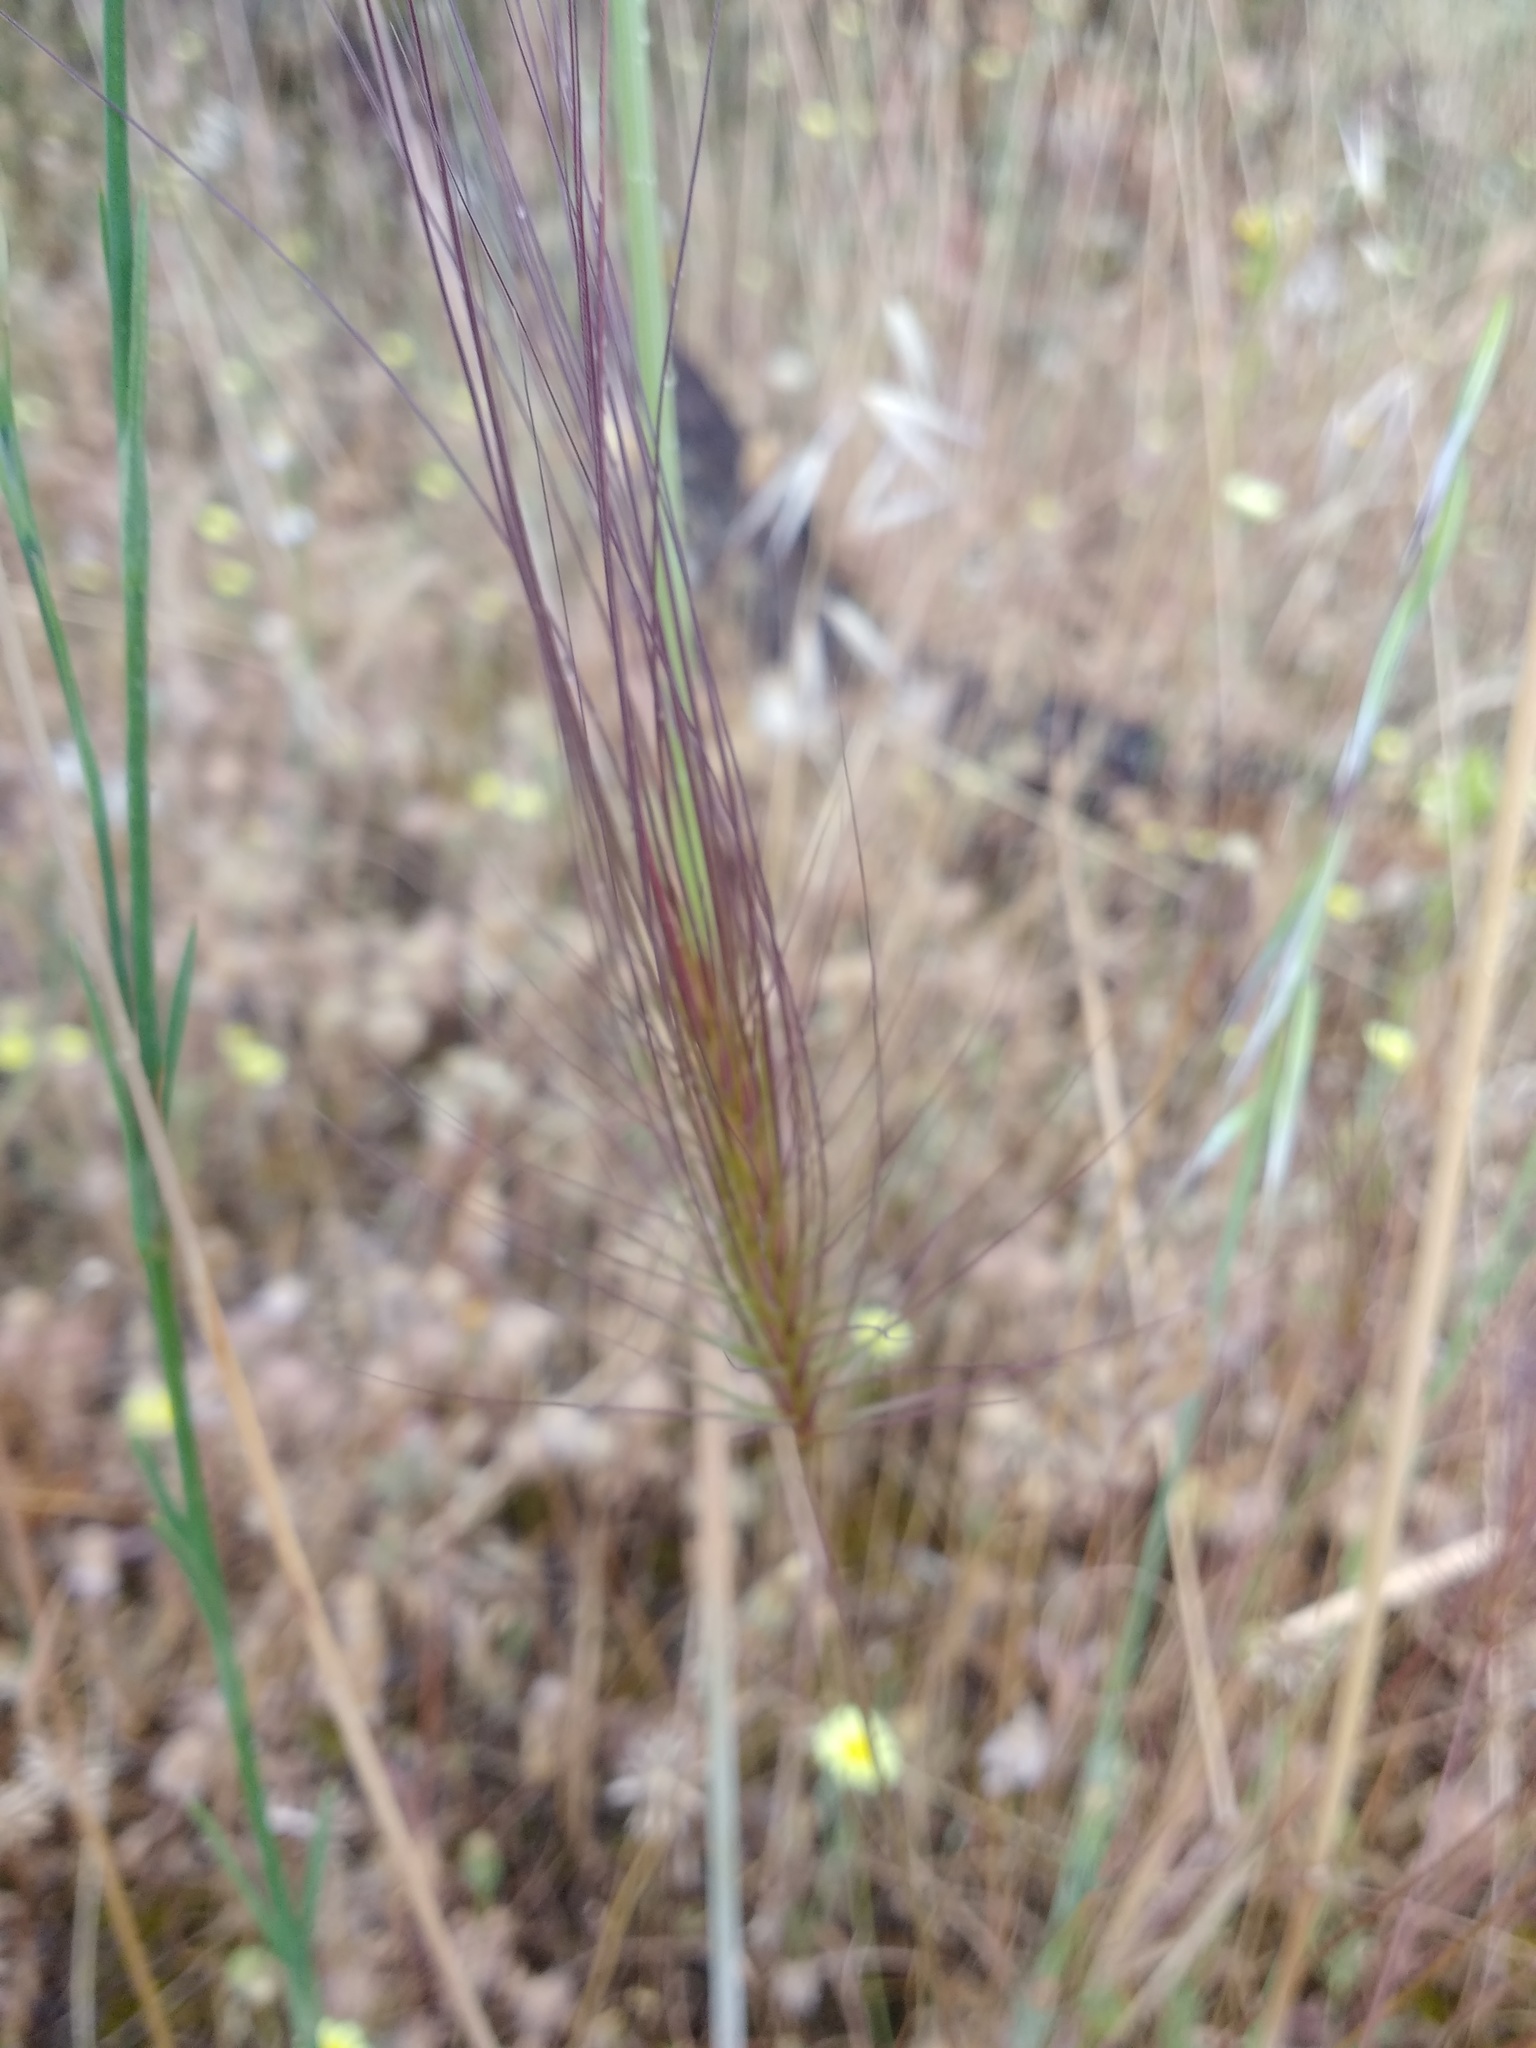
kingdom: Plantae
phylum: Tracheophyta
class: Liliopsida
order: Poales
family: Poaceae
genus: Taeniatherum
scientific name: Taeniatherum caput-medusae
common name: Medusahead
